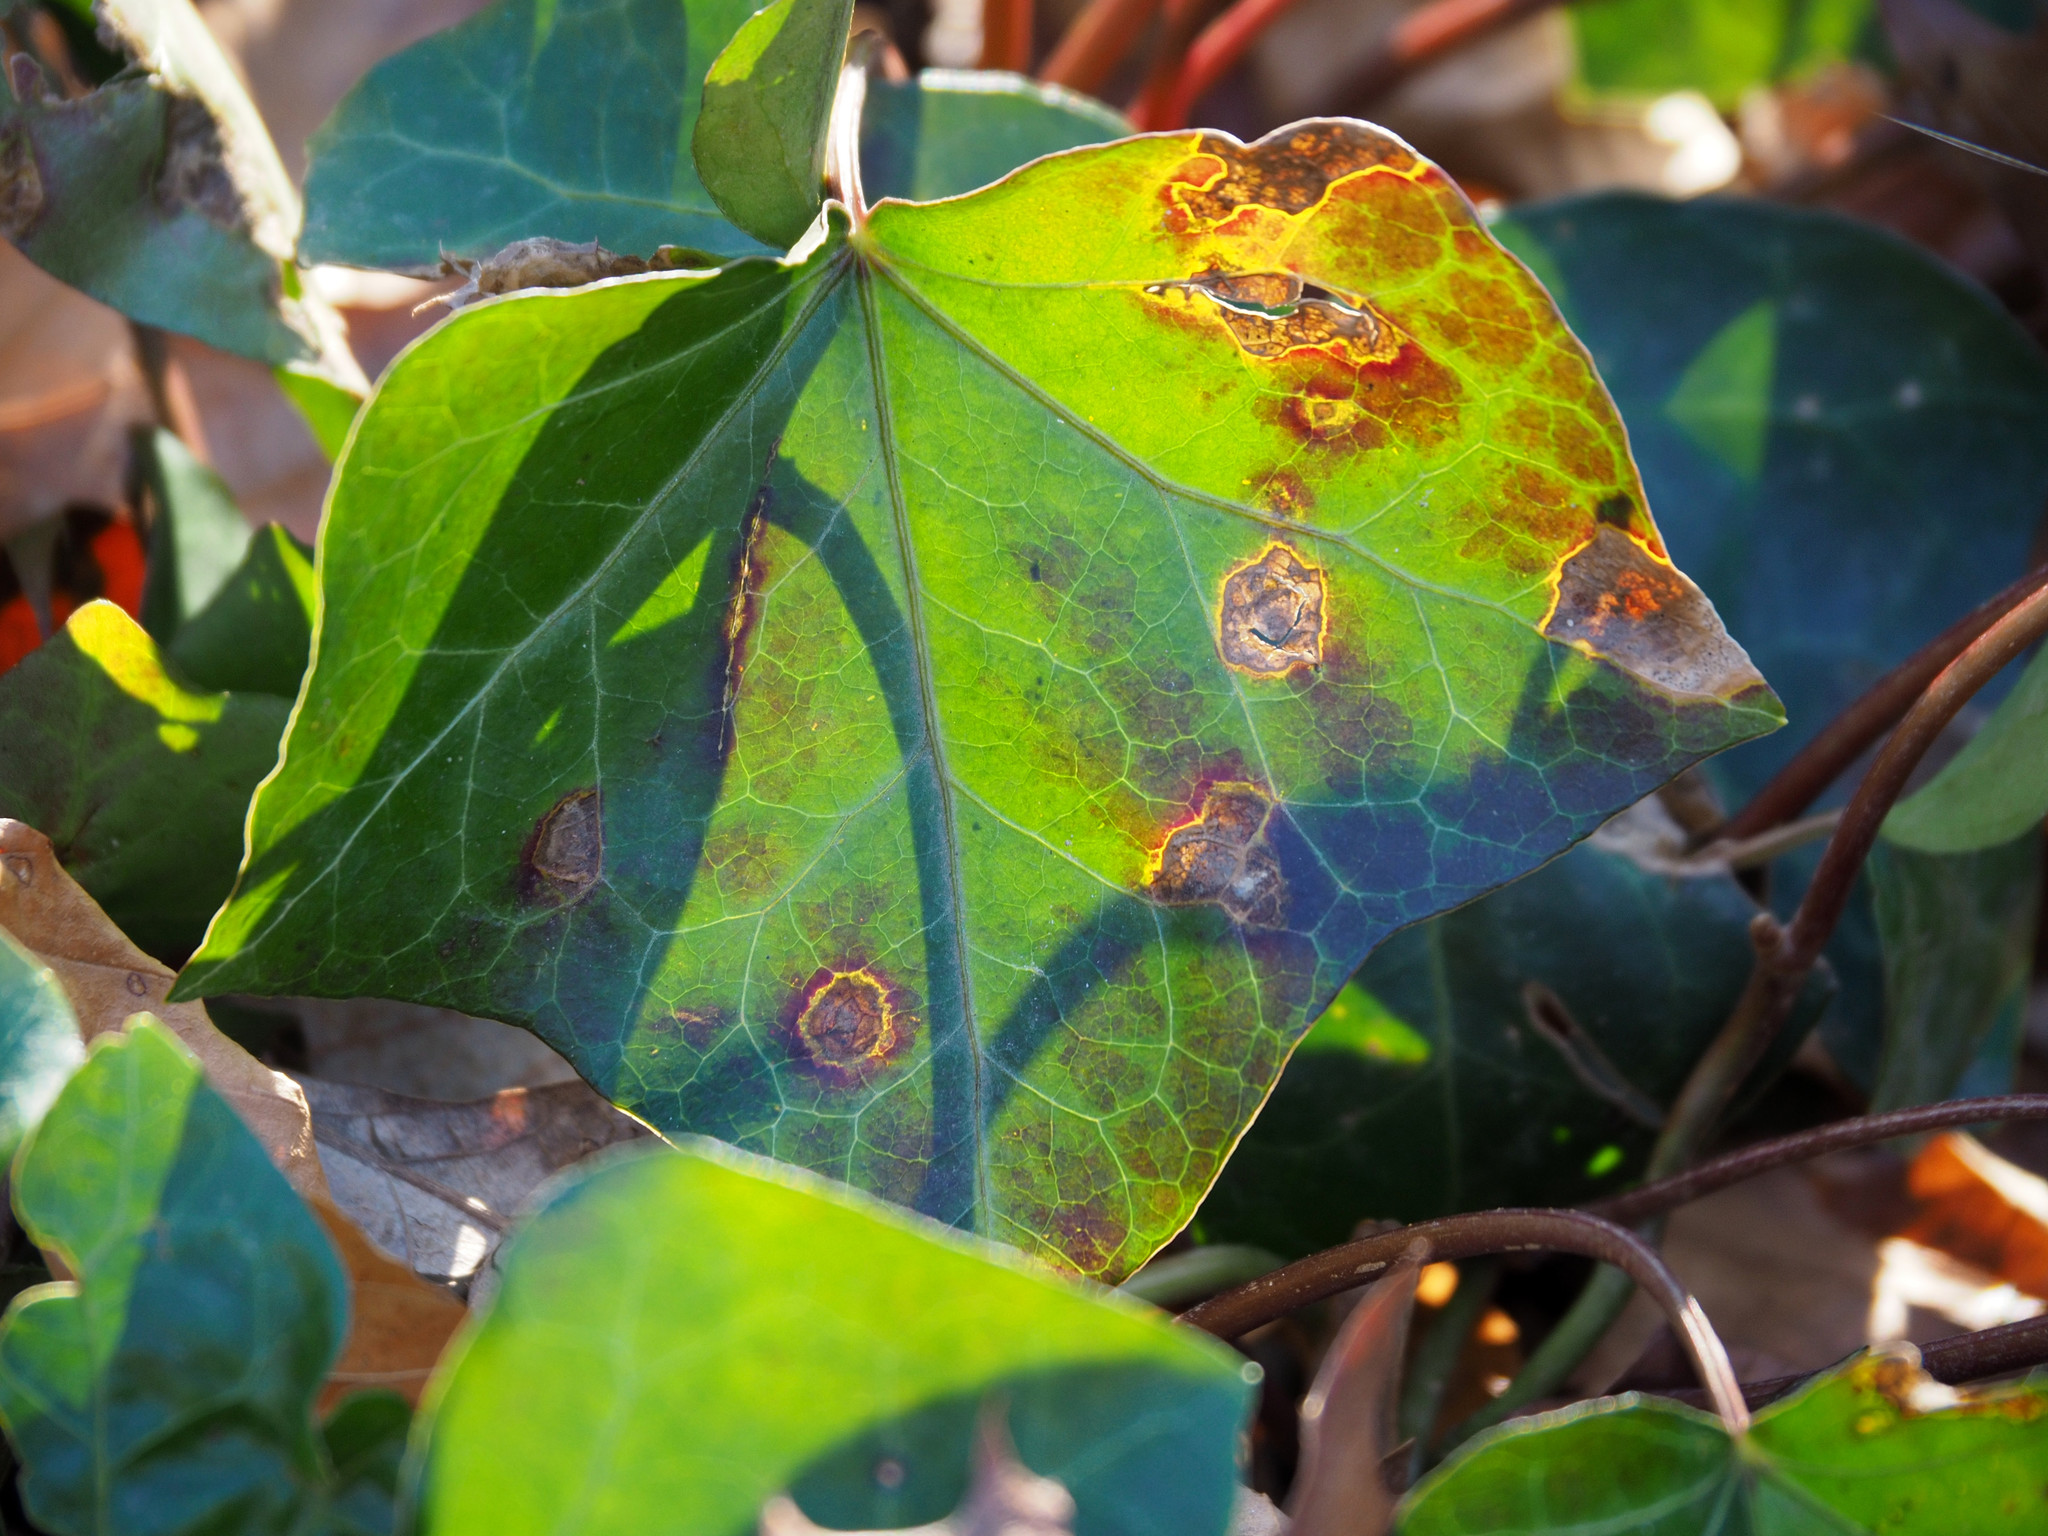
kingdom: Fungi
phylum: Ascomycota
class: Sordariomycetes
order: Glomerellales
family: Glomerellaceae
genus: Colletotrichum
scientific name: Colletotrichum trichellum
